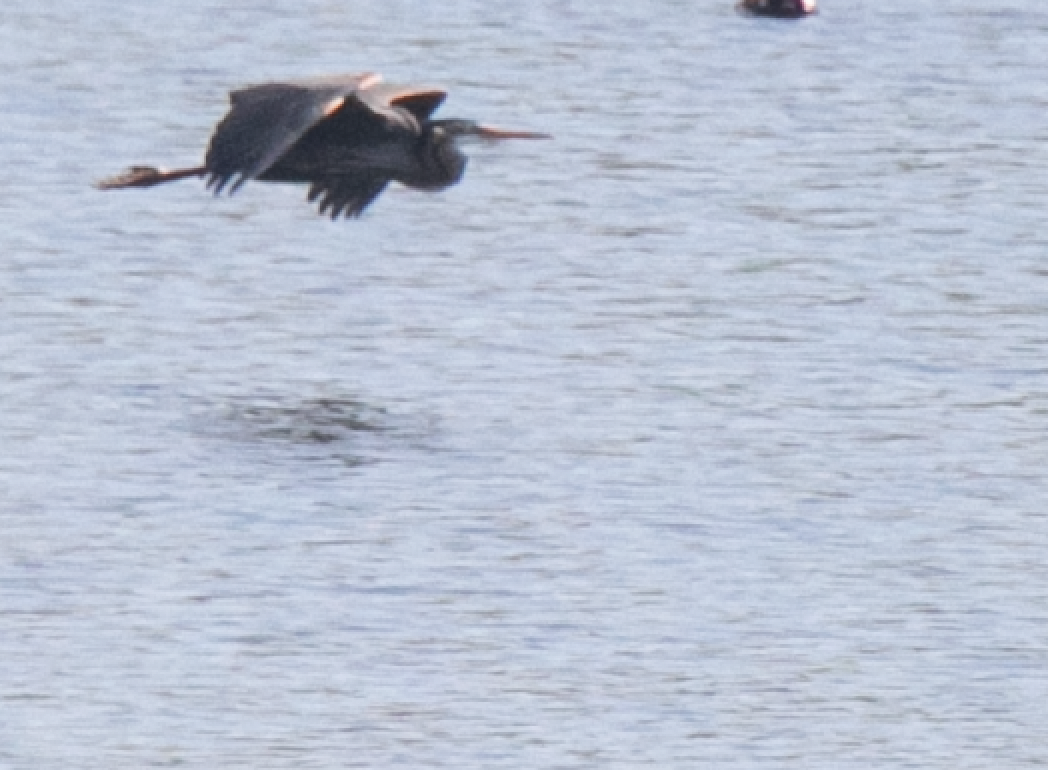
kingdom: Animalia
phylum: Chordata
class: Aves
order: Pelecaniformes
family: Ardeidae
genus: Ardea
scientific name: Ardea purpurea
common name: Purple heron
